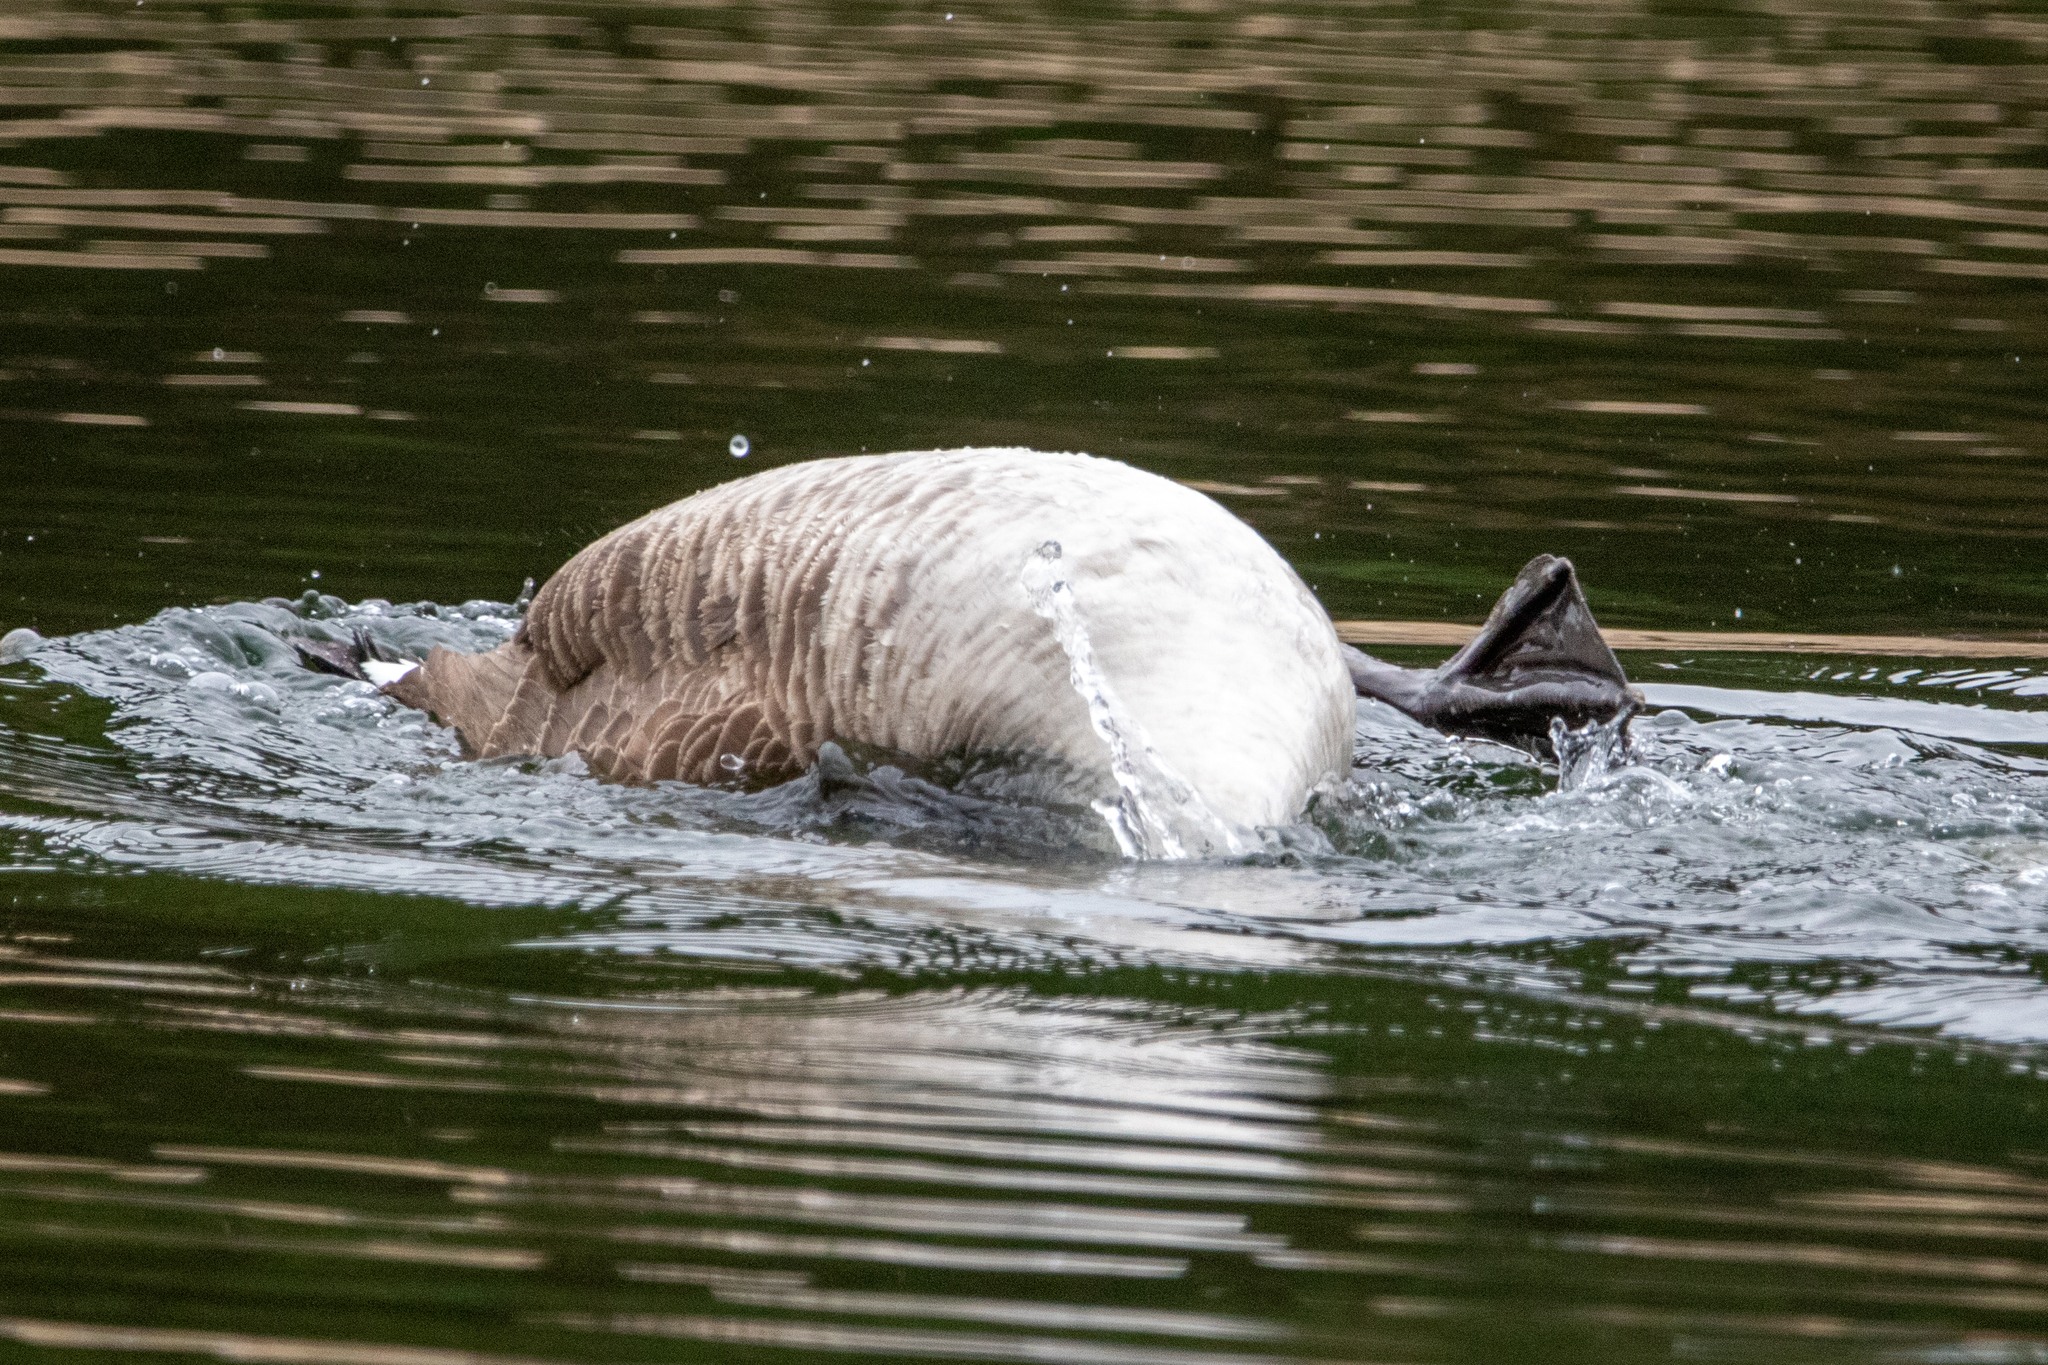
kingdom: Animalia
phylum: Chordata
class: Aves
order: Anseriformes
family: Anatidae
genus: Branta
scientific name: Branta canadensis
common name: Canada goose
